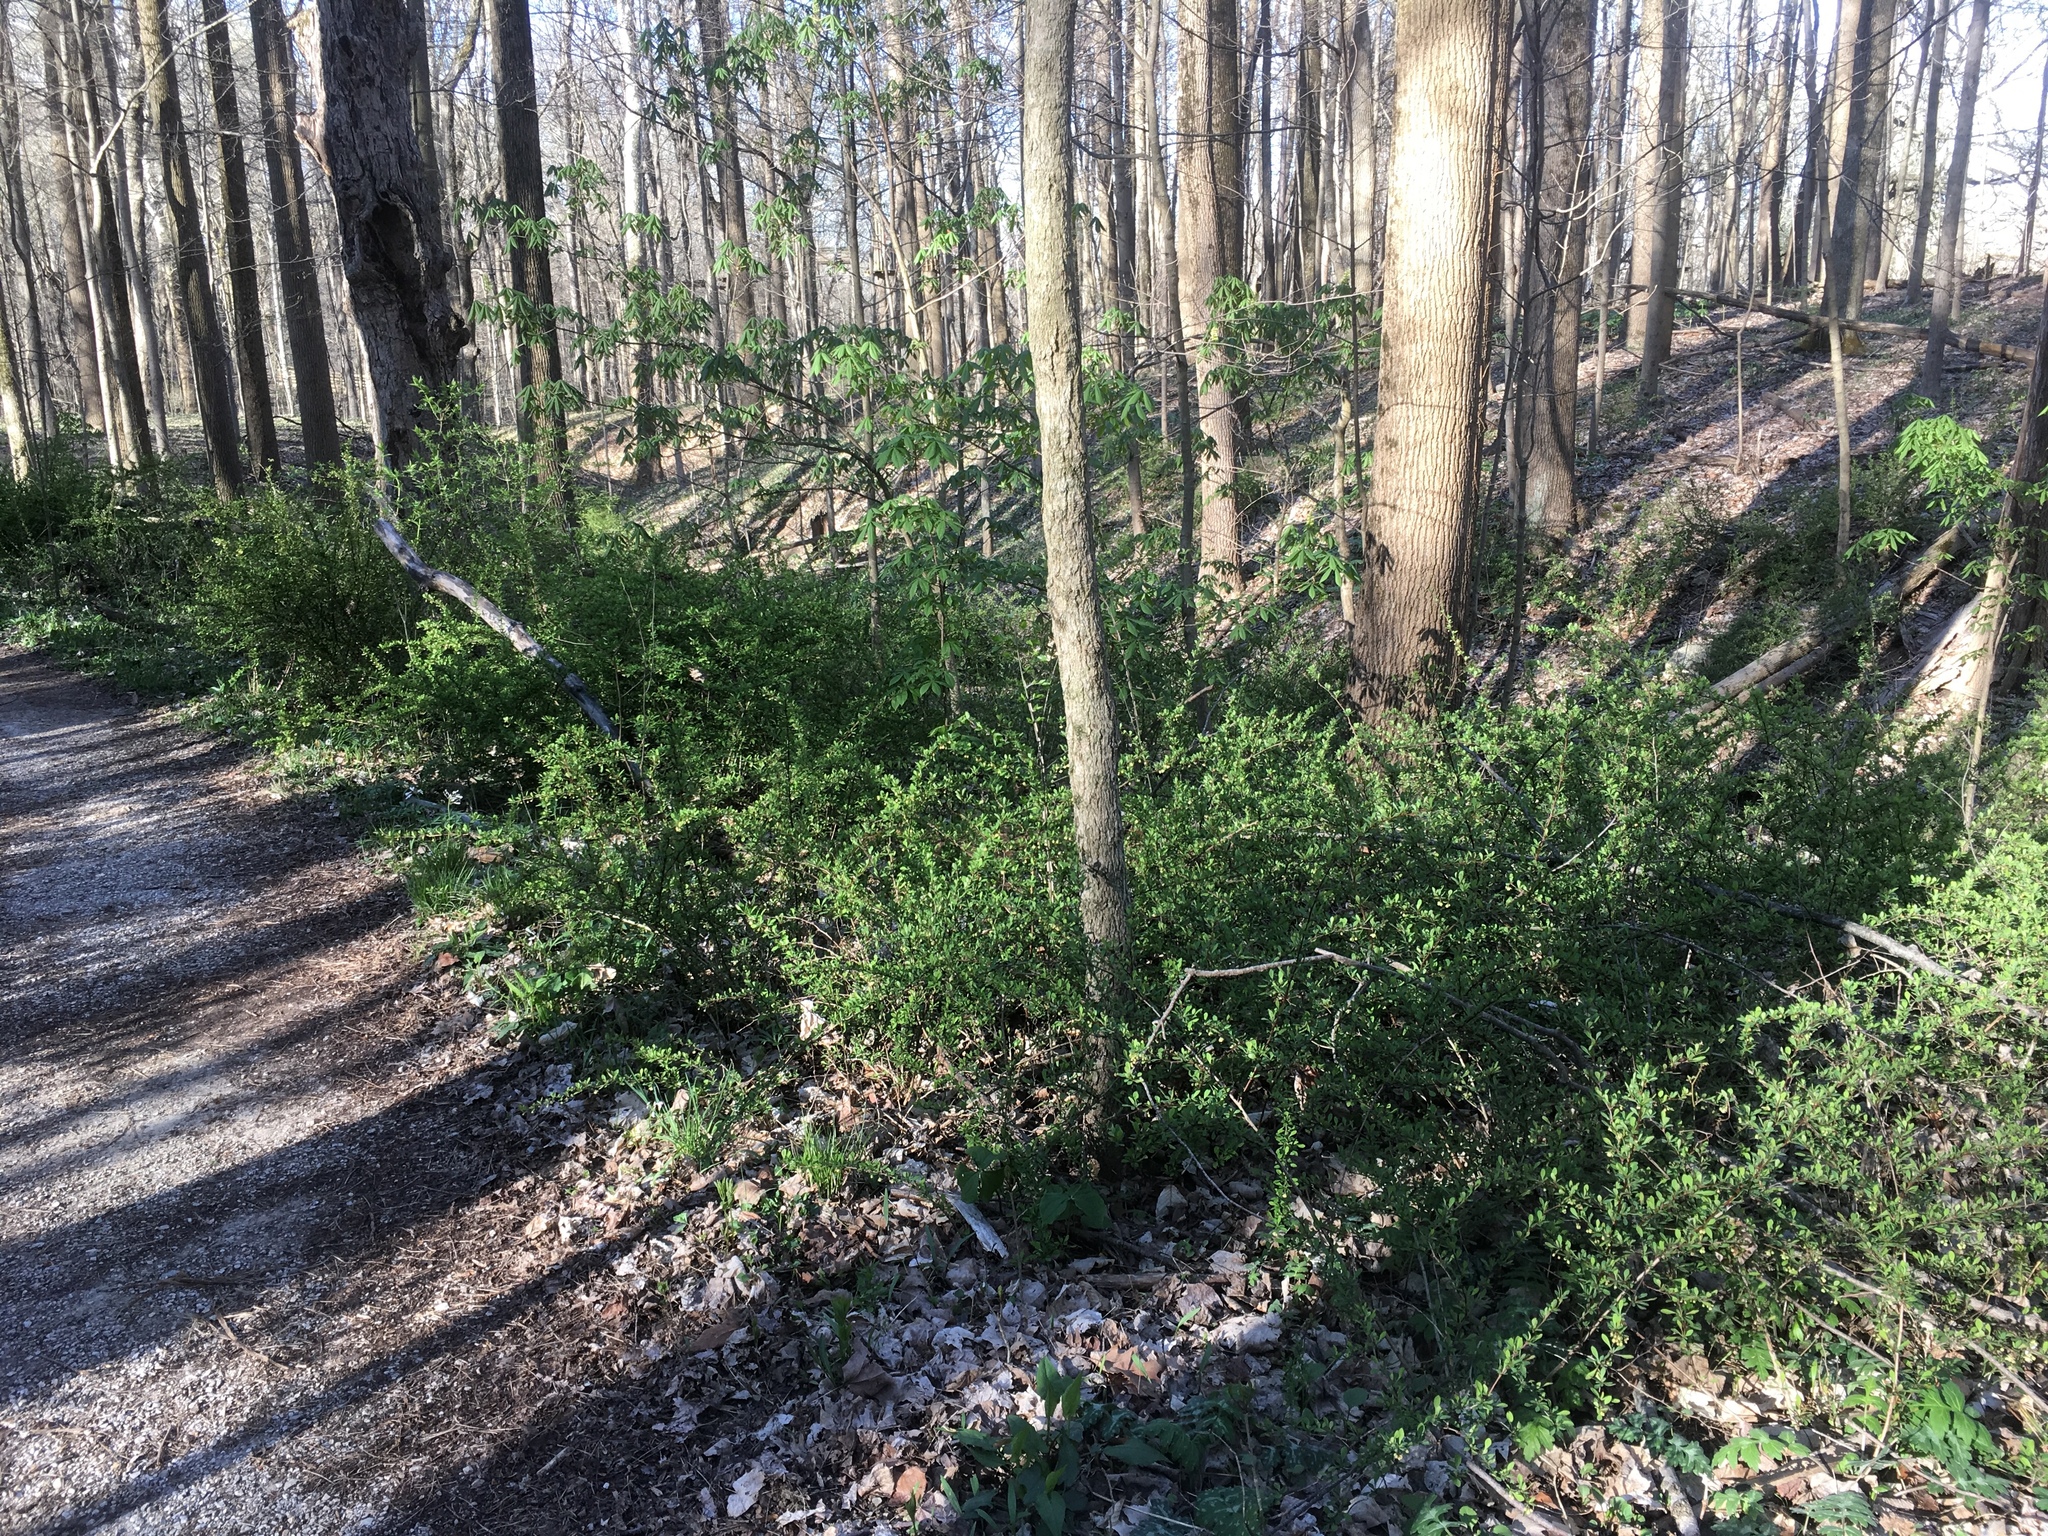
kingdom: Plantae
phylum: Tracheophyta
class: Magnoliopsida
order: Ranunculales
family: Berberidaceae
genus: Berberis
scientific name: Berberis thunbergii
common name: Japanese barberry
